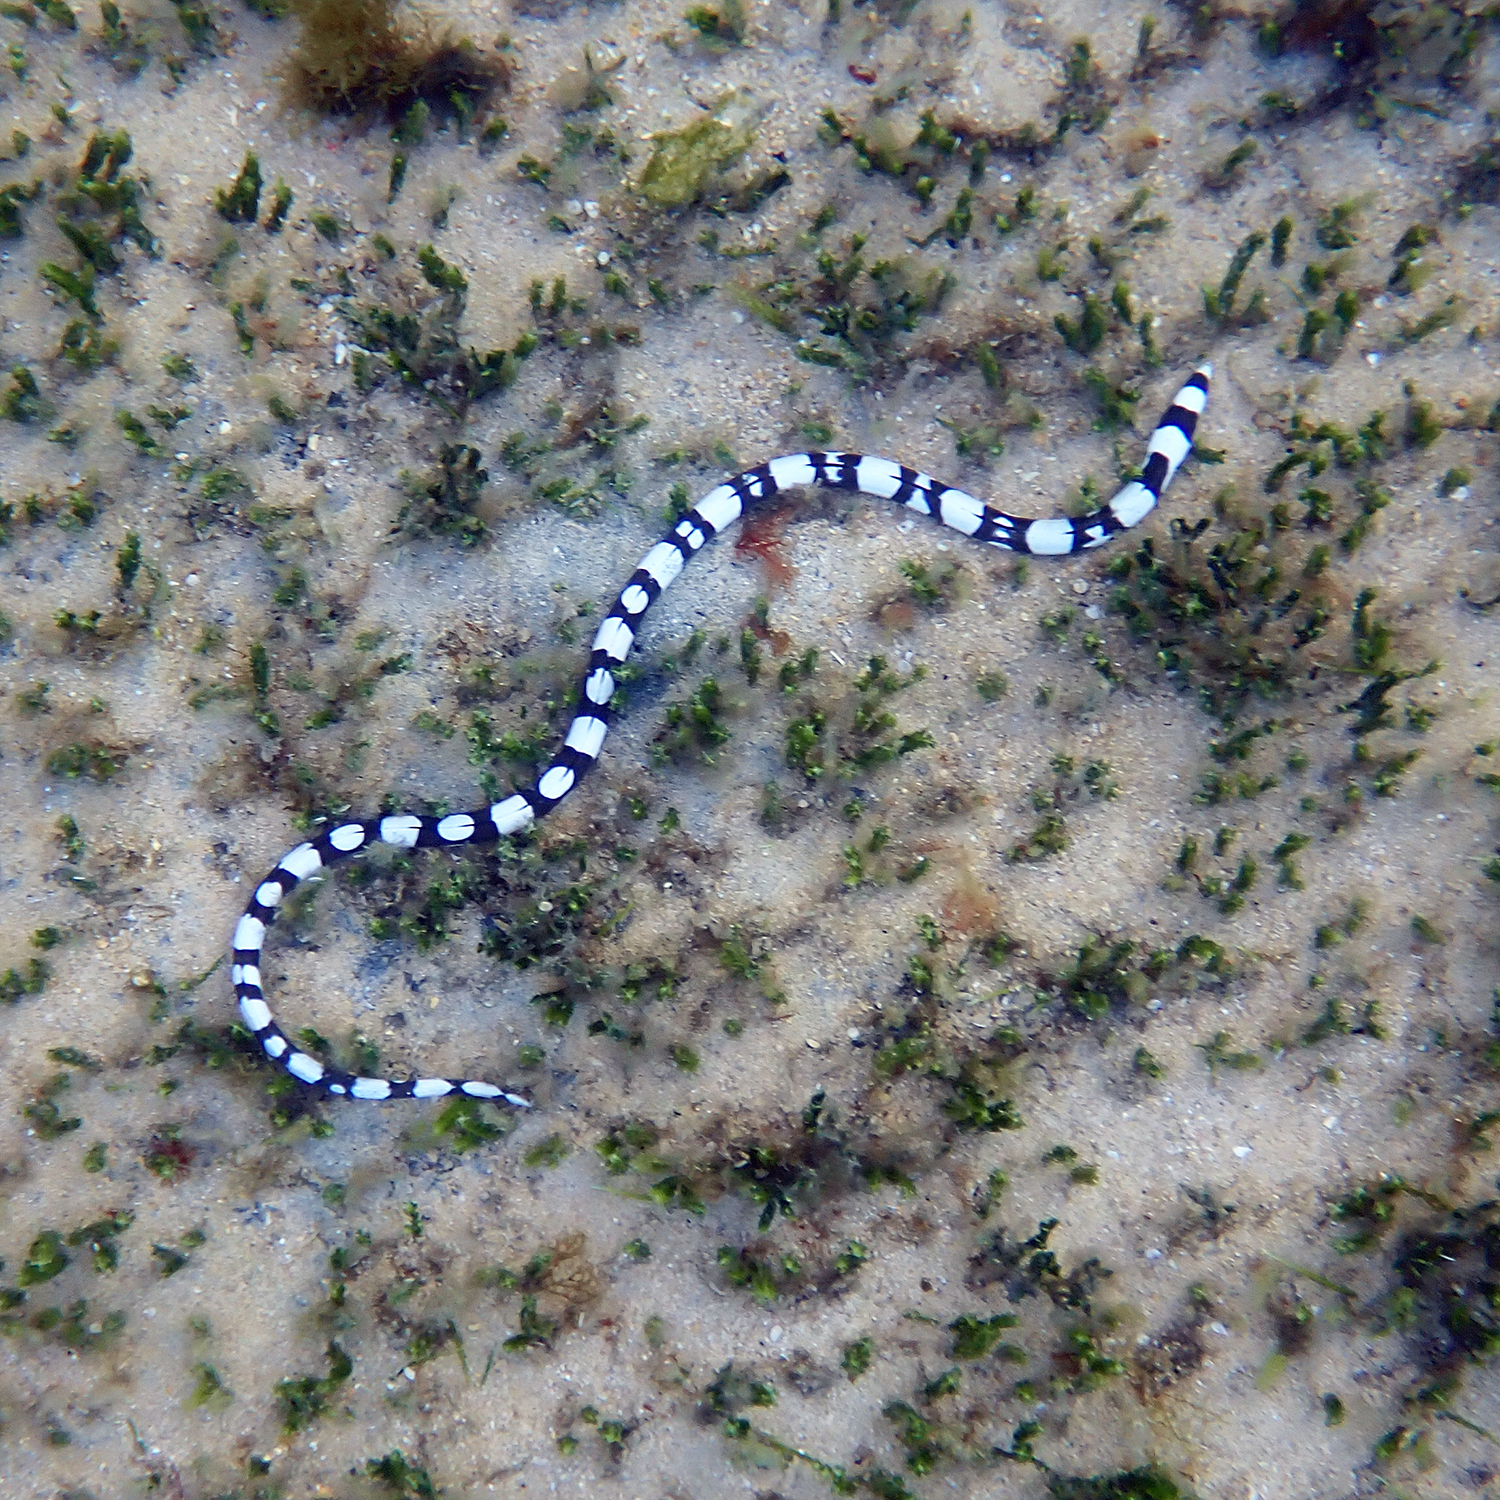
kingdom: Animalia
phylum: Chordata
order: Anguilliformes
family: Ophichthidae
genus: Leiuranus
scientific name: Leiuranus versicolor
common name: Convict snake eel
